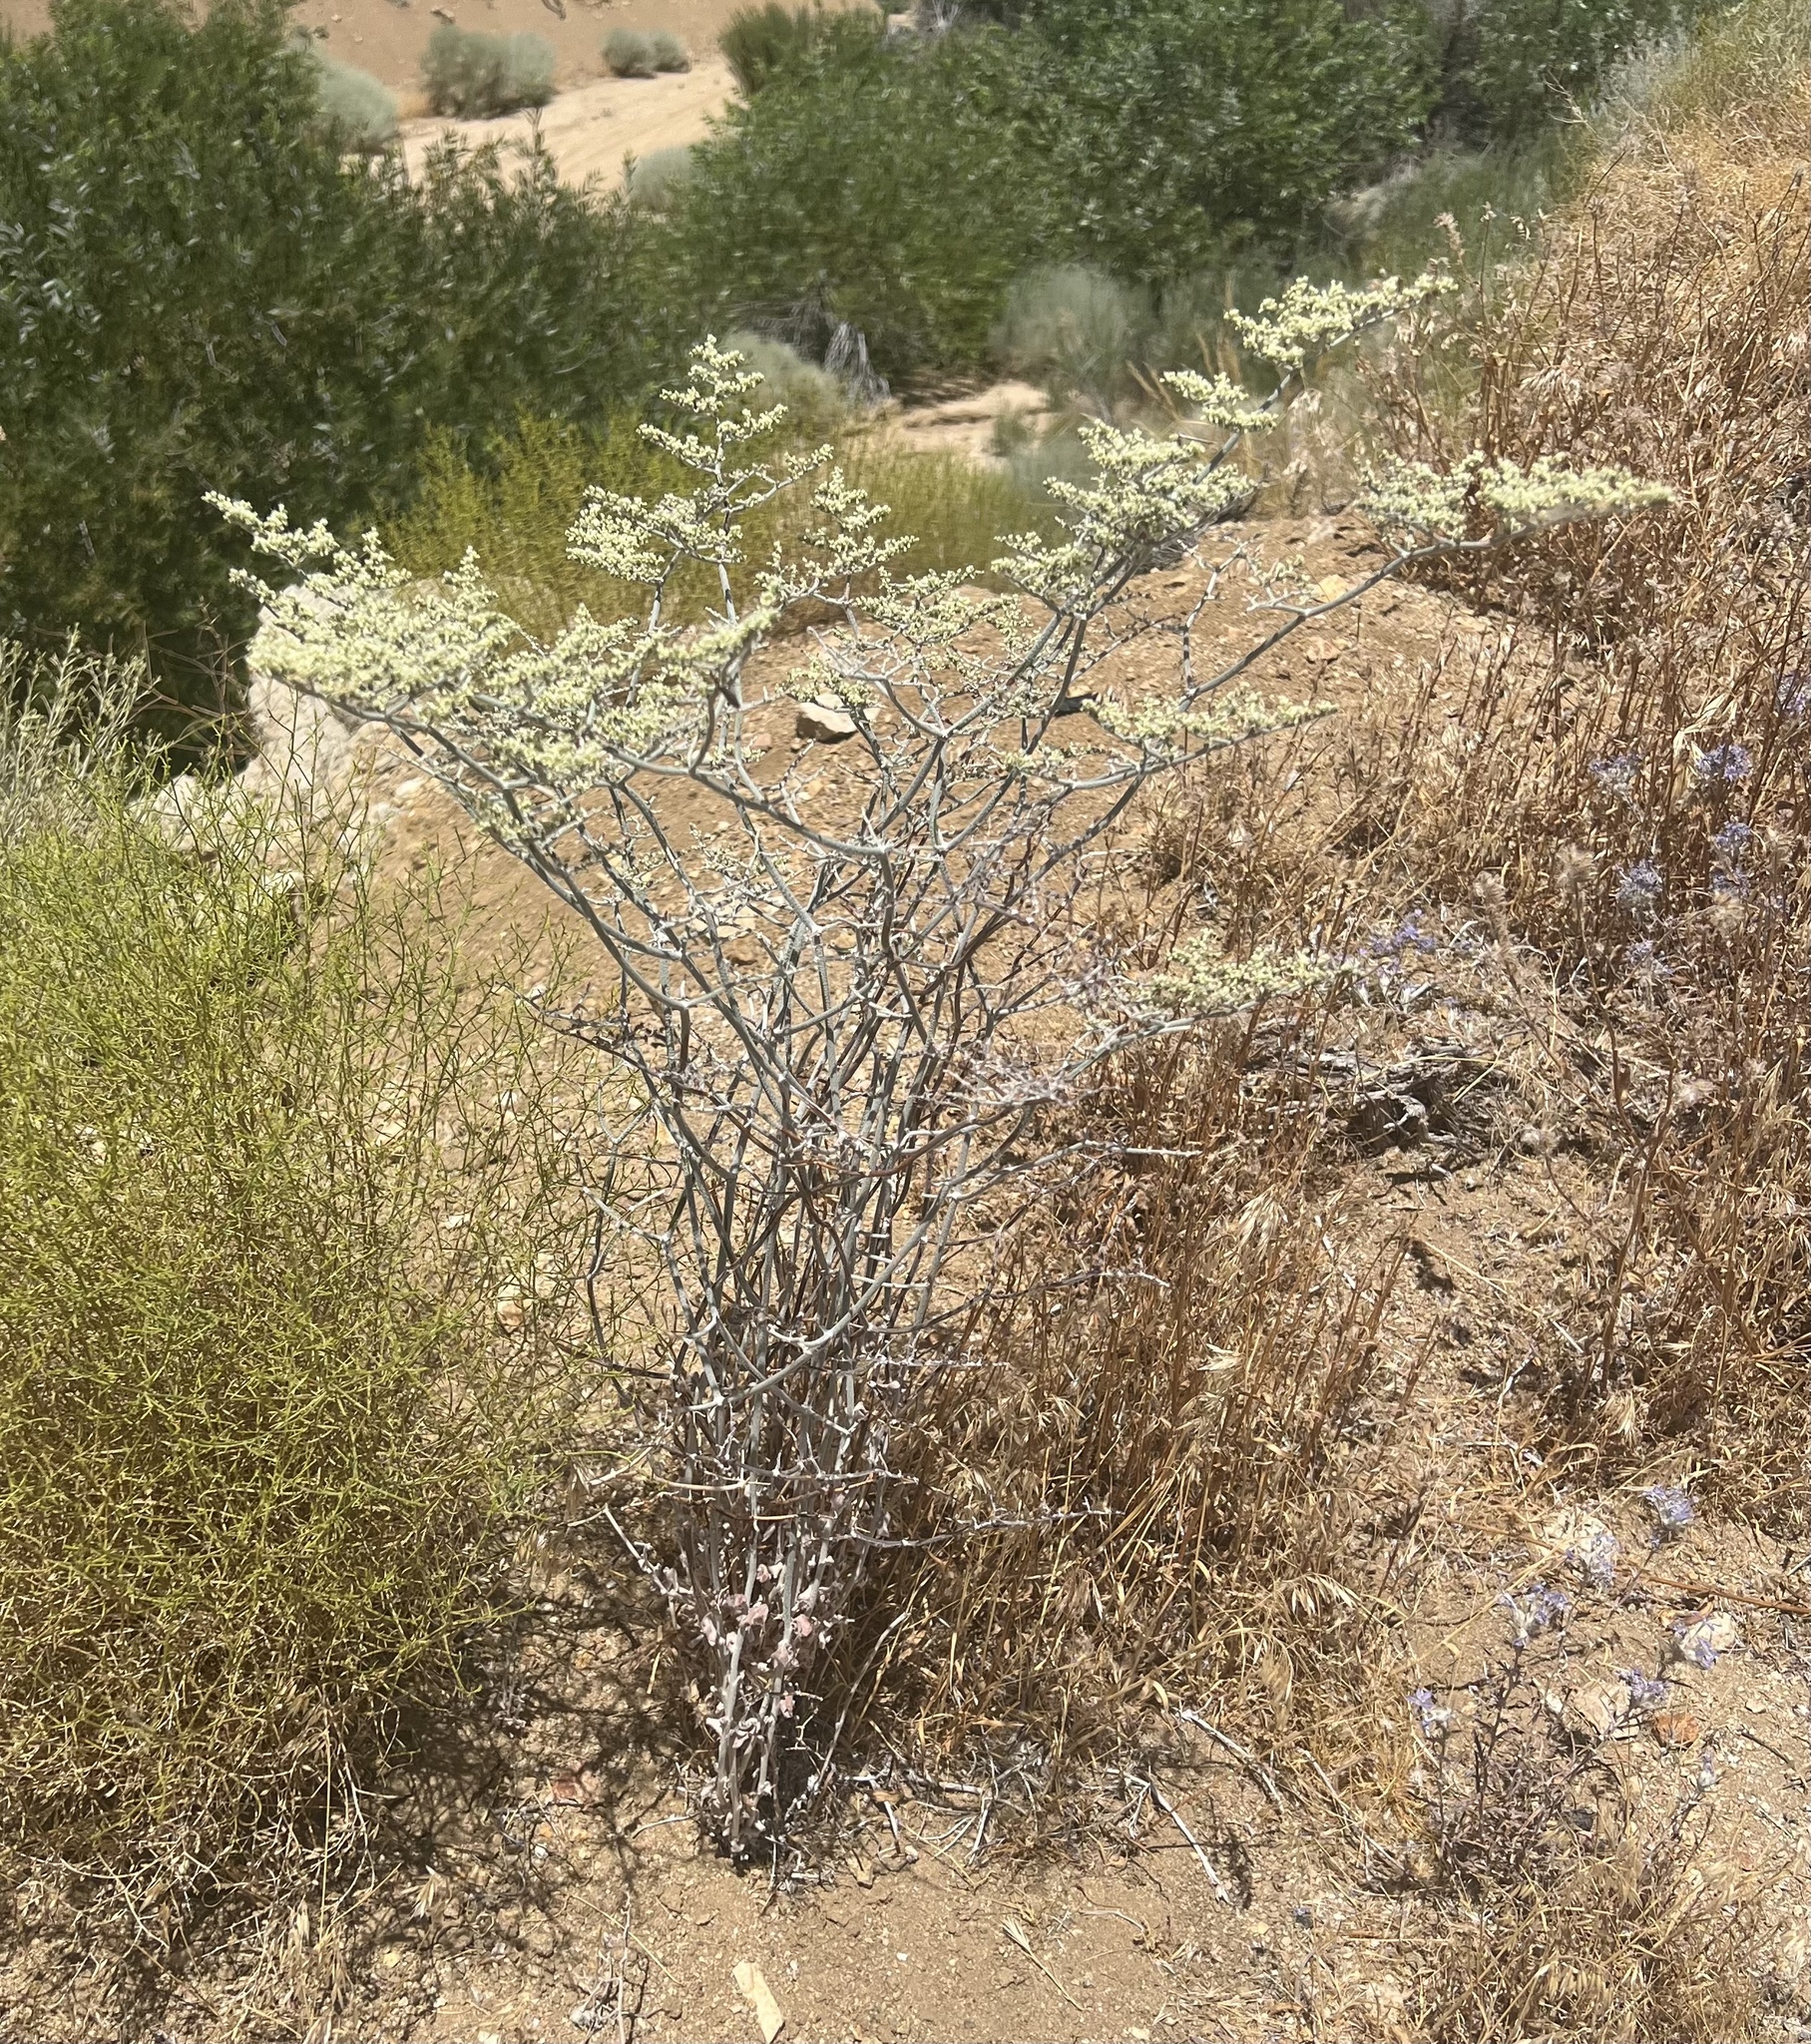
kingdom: Plantae
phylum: Tracheophyta
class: Magnoliopsida
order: Caryophyllales
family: Polygonaceae
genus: Eriogonum
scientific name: Eriogonum plumatella
